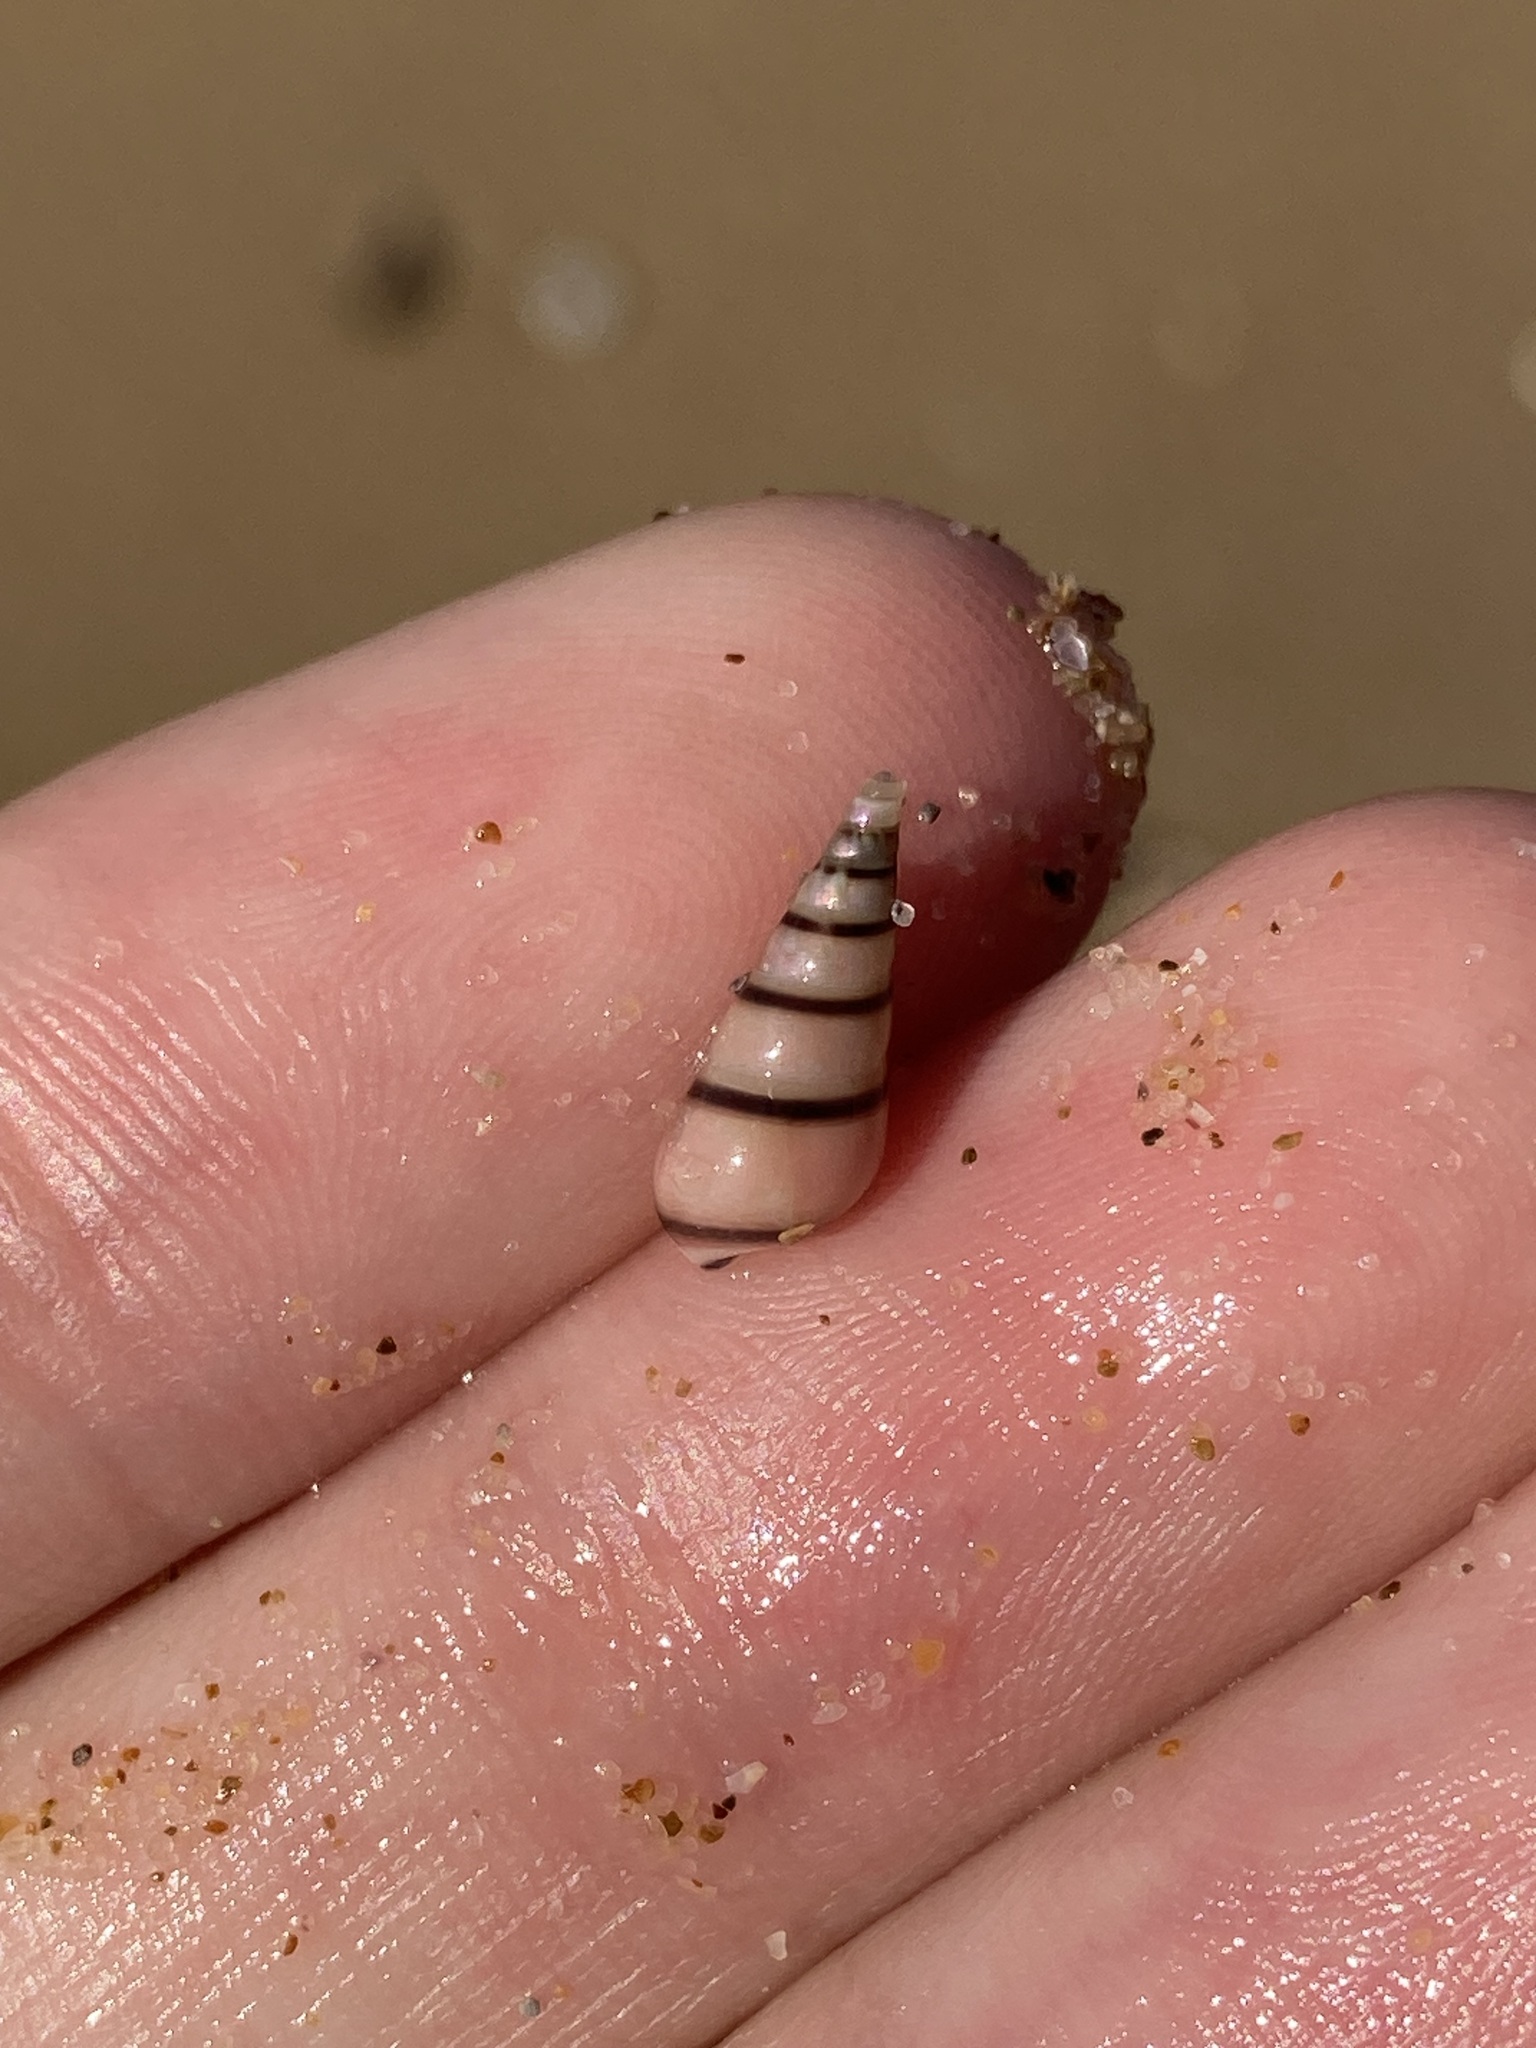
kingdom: Animalia
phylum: Mollusca
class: Gastropoda
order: Trochida
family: Trochidae
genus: Bankivia
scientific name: Bankivia fasciata
